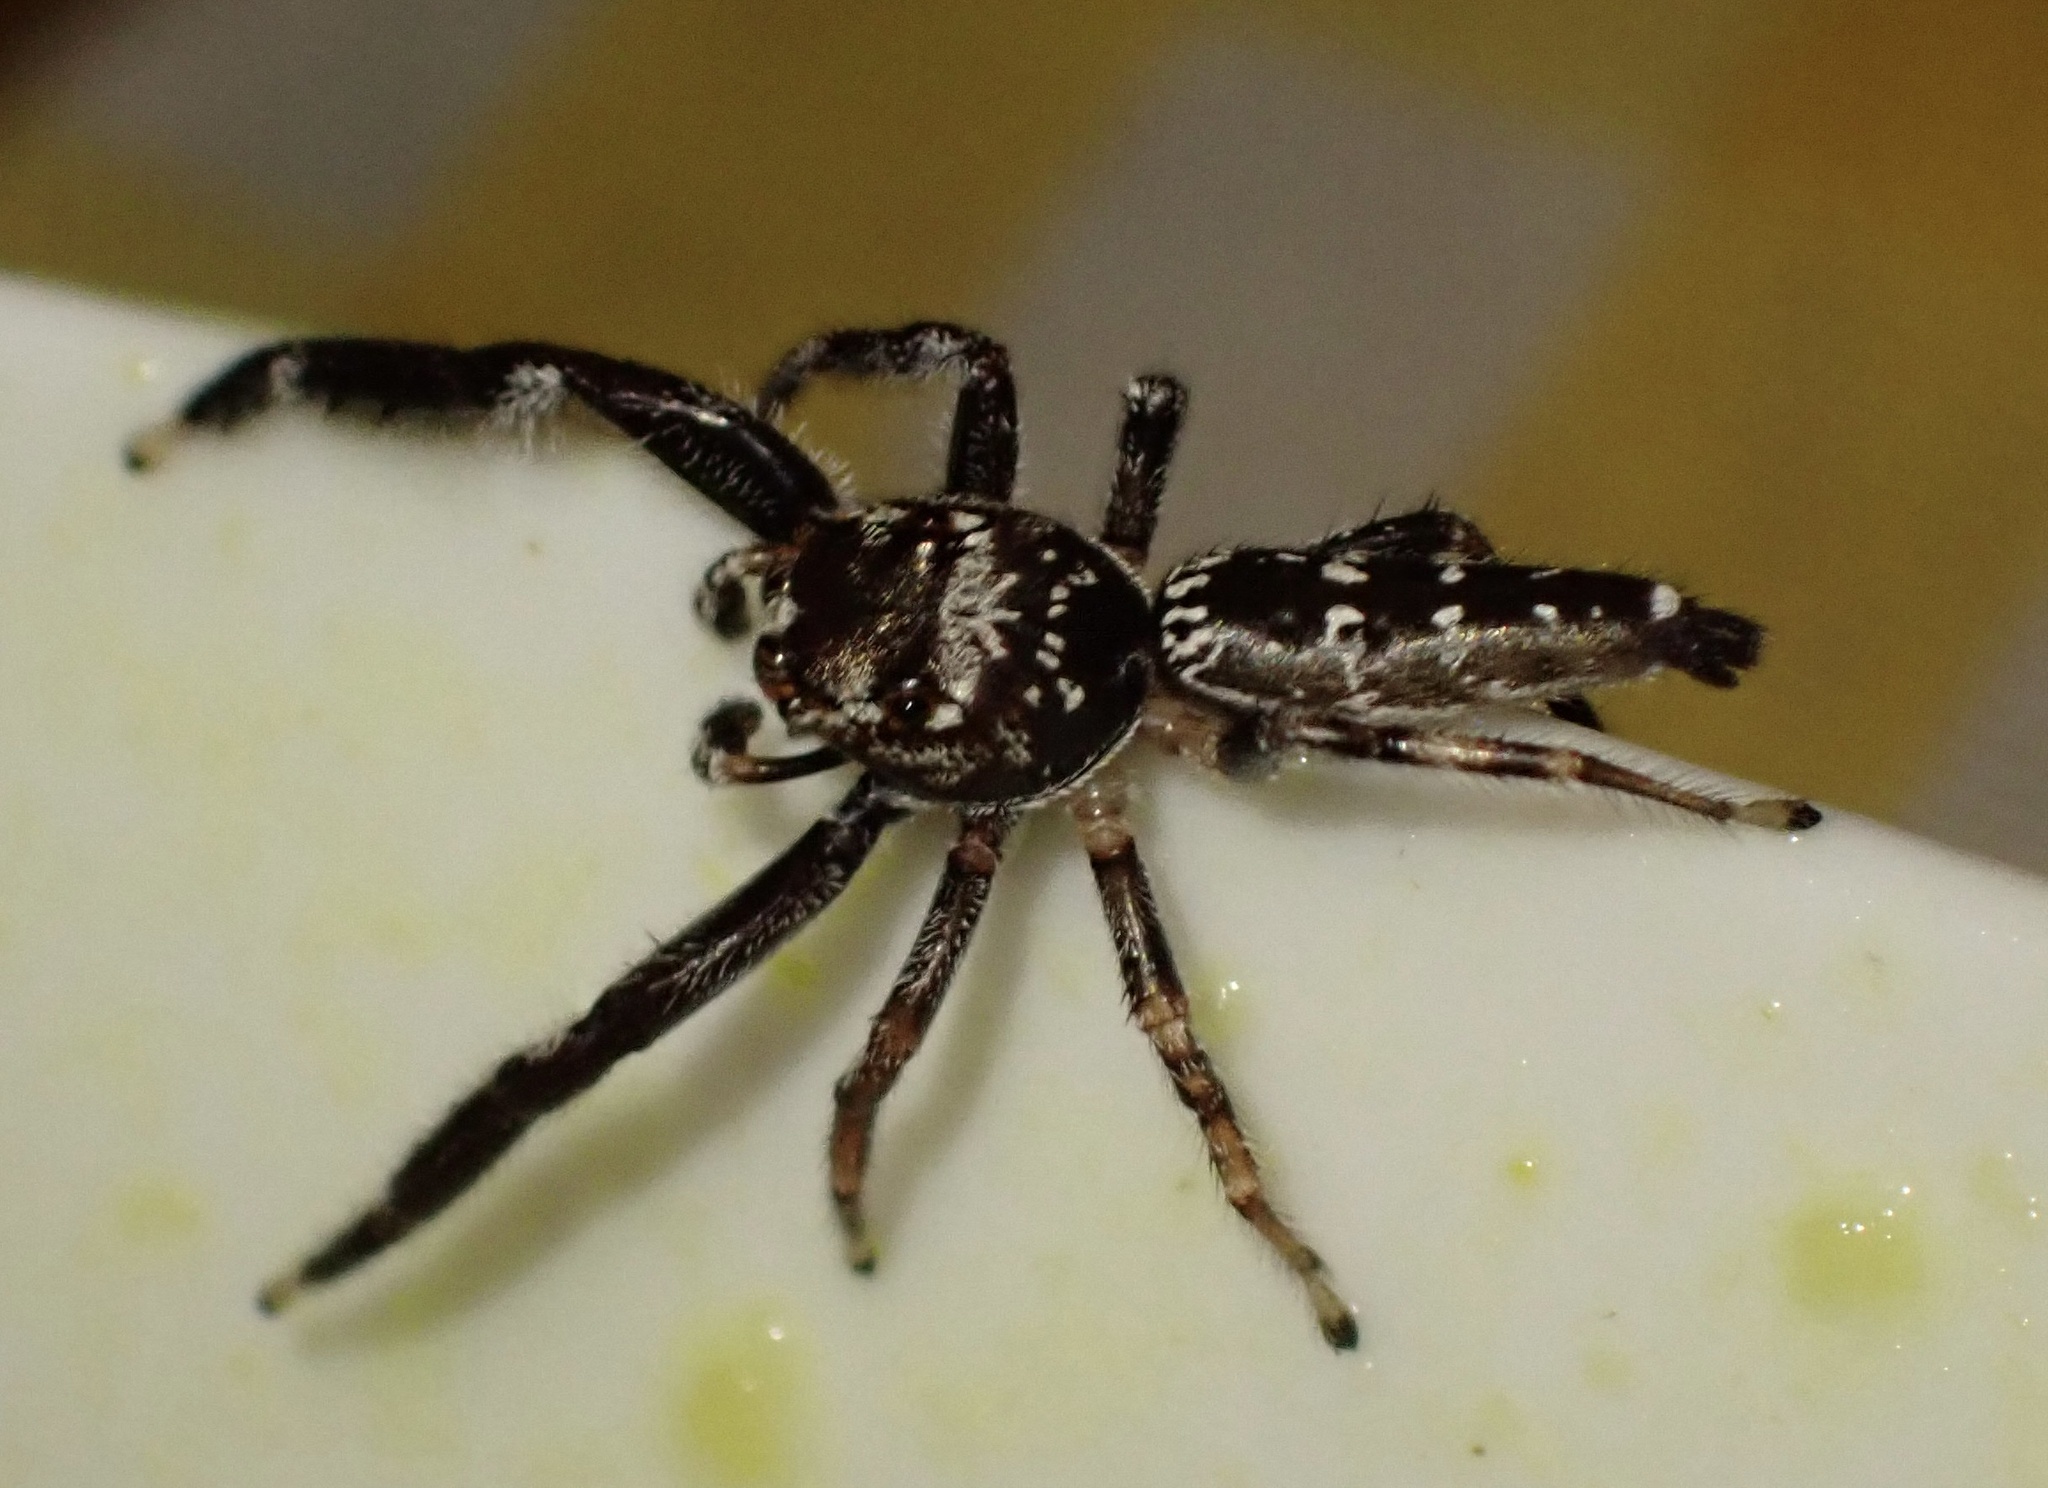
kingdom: Animalia
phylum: Arthropoda
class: Arachnida
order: Araneae
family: Salticidae
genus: Bavia
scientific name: Bavia sexpunctata
